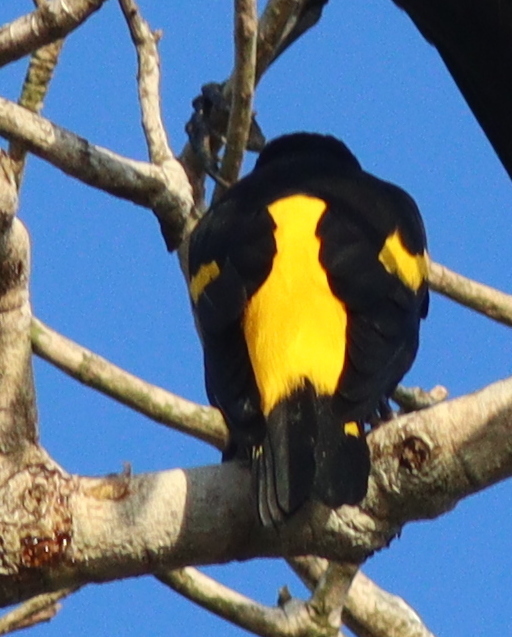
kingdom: Animalia
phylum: Chordata
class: Aves
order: Passeriformes
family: Icteridae
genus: Cacicus
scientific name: Cacicus cela
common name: Yellow-rumped cacique
